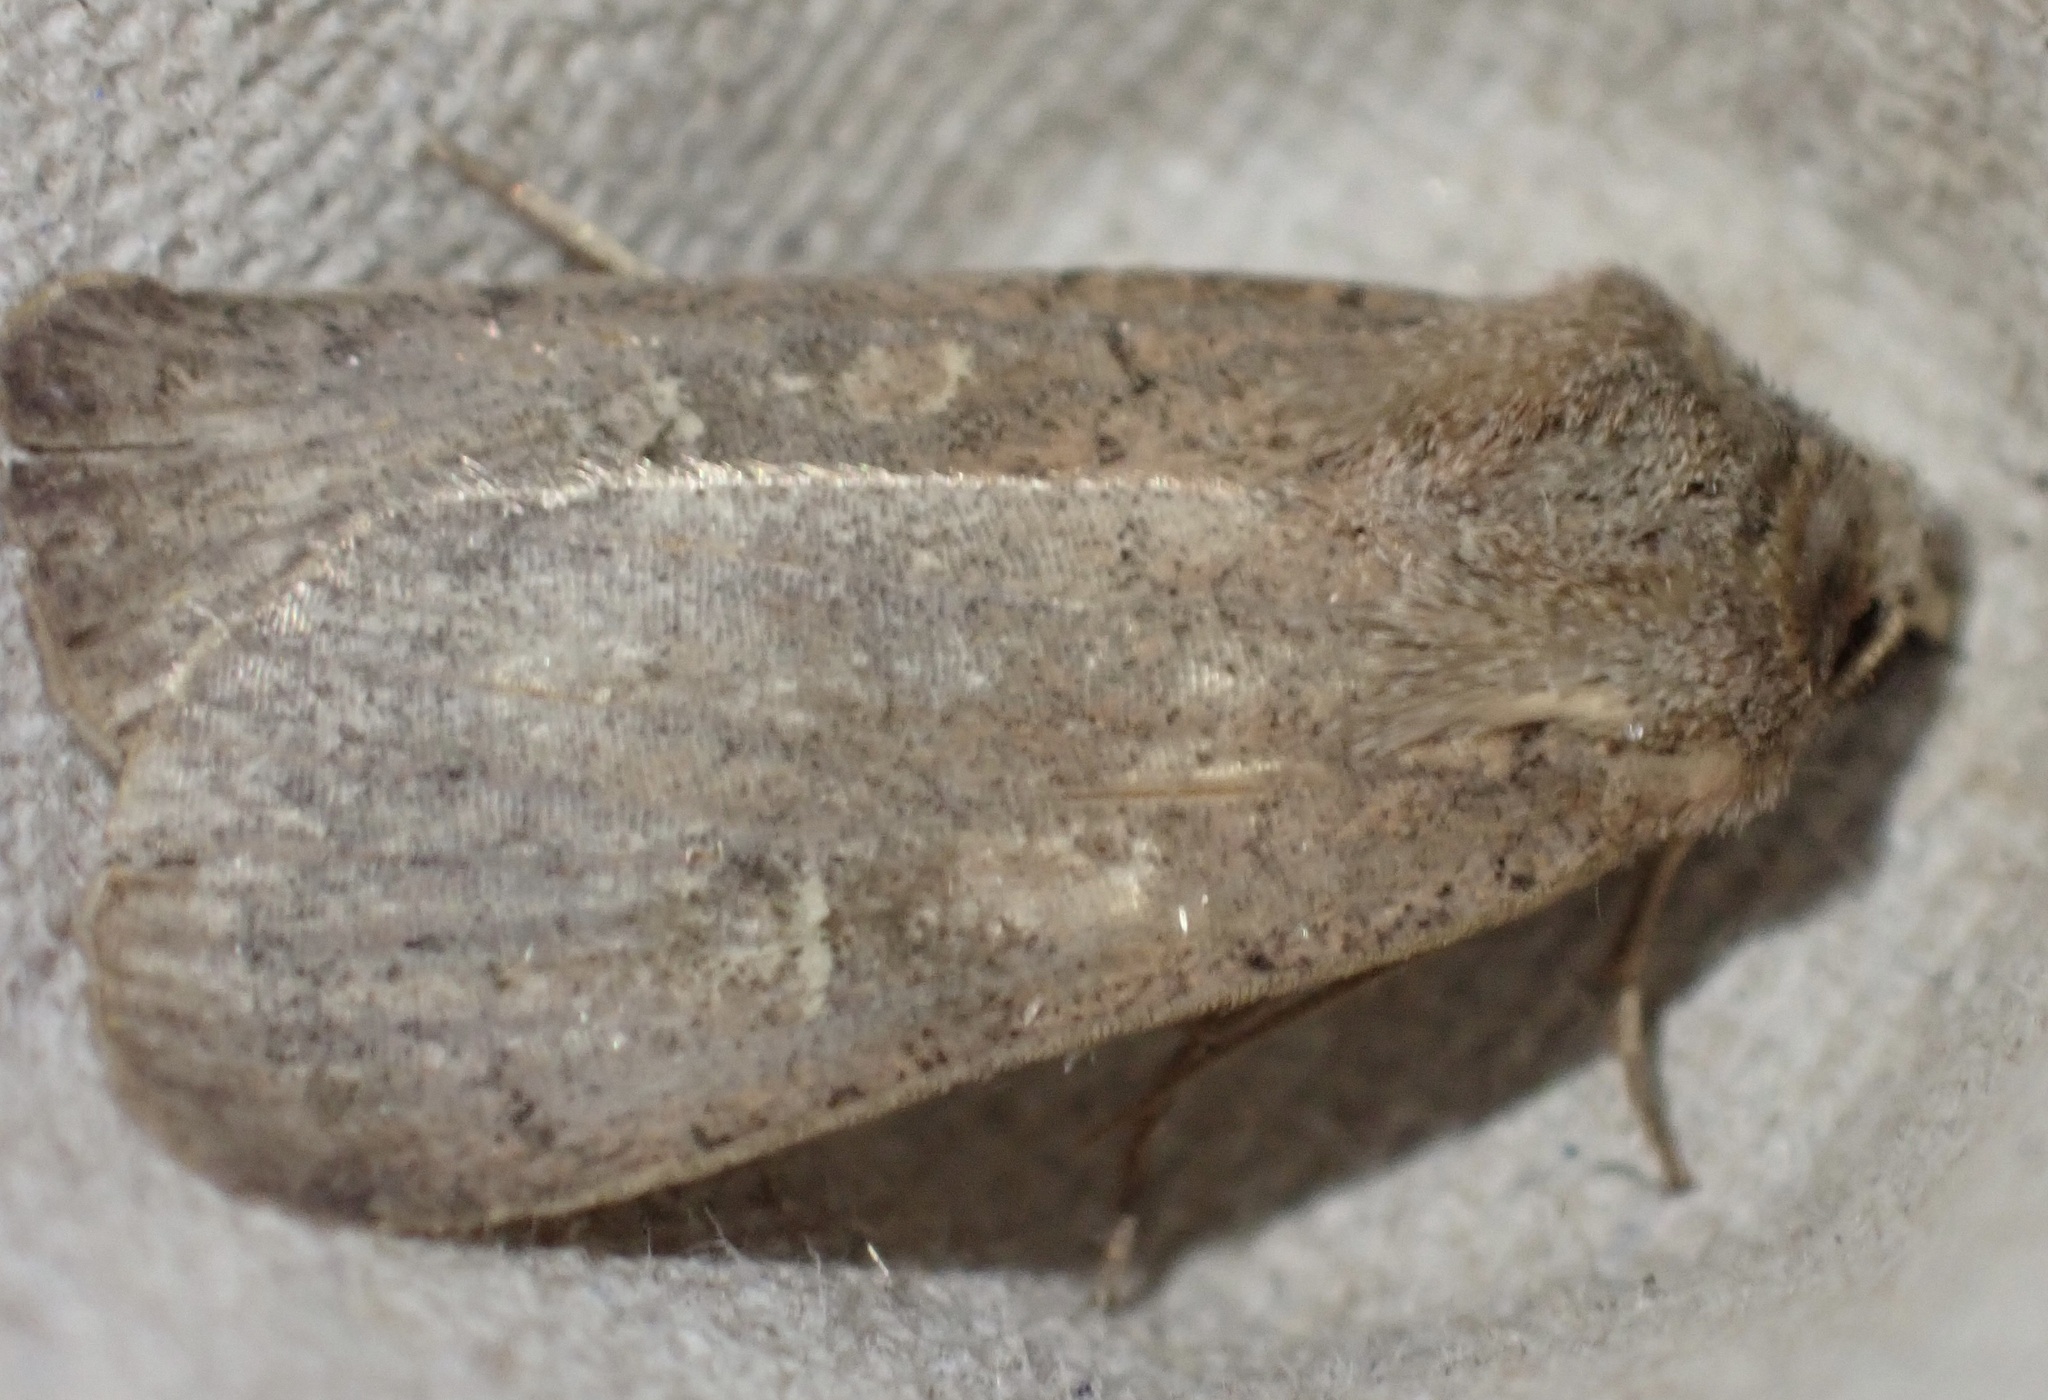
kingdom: Animalia
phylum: Arthropoda
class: Insecta
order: Lepidoptera
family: Noctuidae
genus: Xestia
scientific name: Xestia xanthographa
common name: Square-spot rustic
